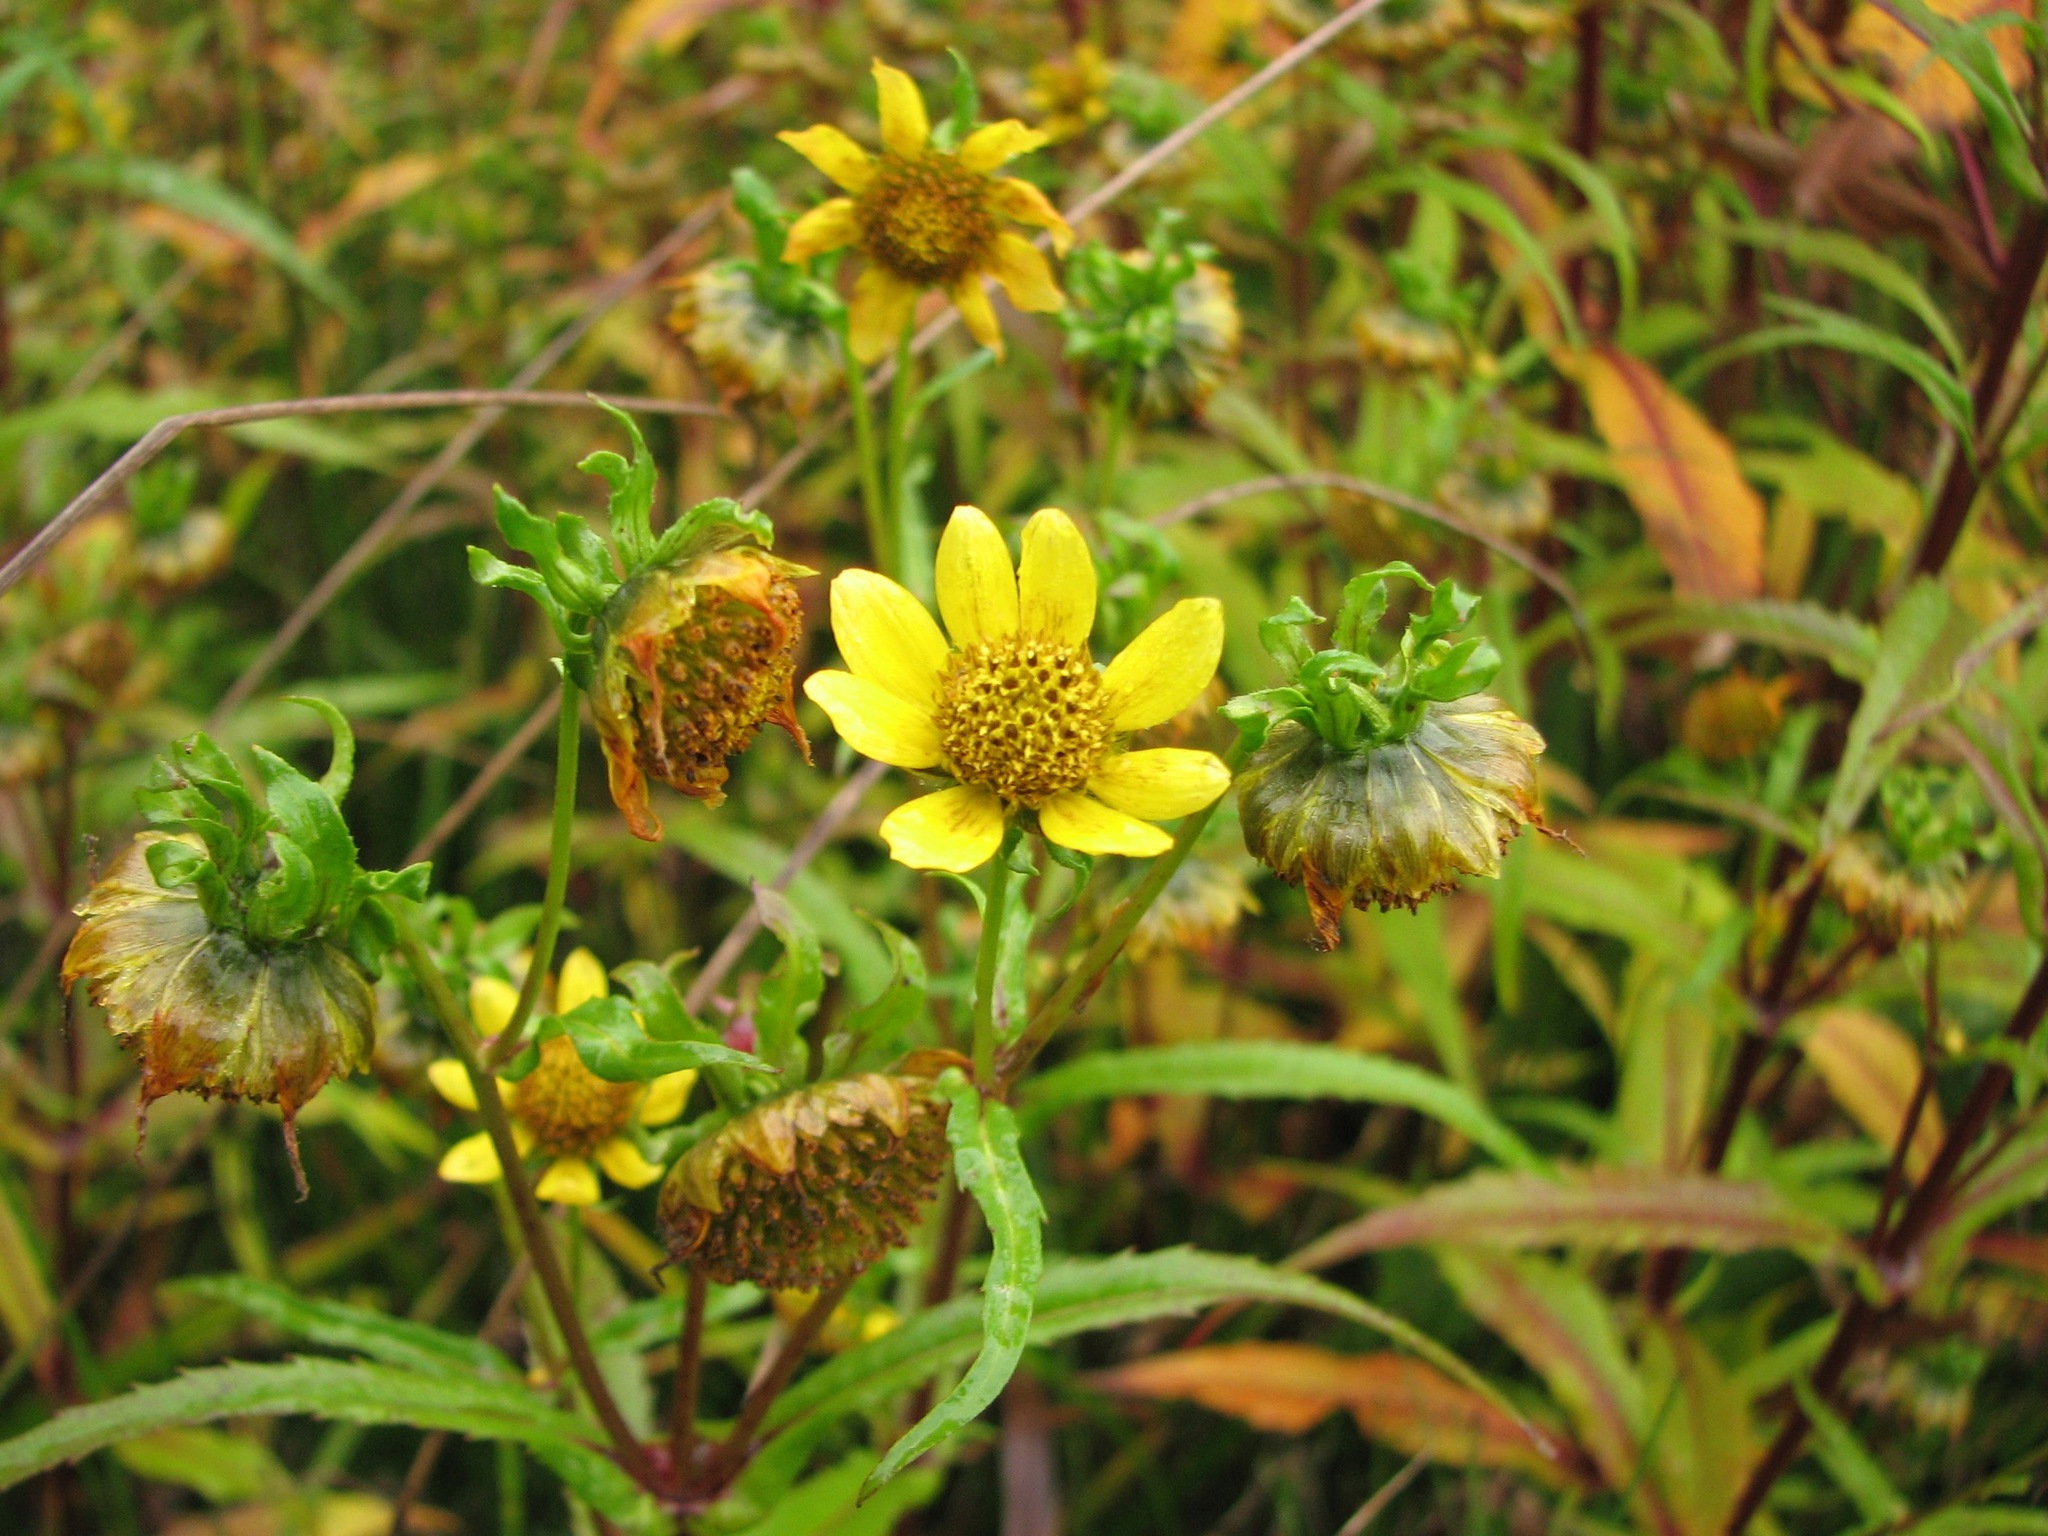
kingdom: Plantae
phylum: Tracheophyta
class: Magnoliopsida
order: Asterales
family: Asteraceae
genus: Bidens
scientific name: Bidens cernua
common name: Nodding bur-marigold
